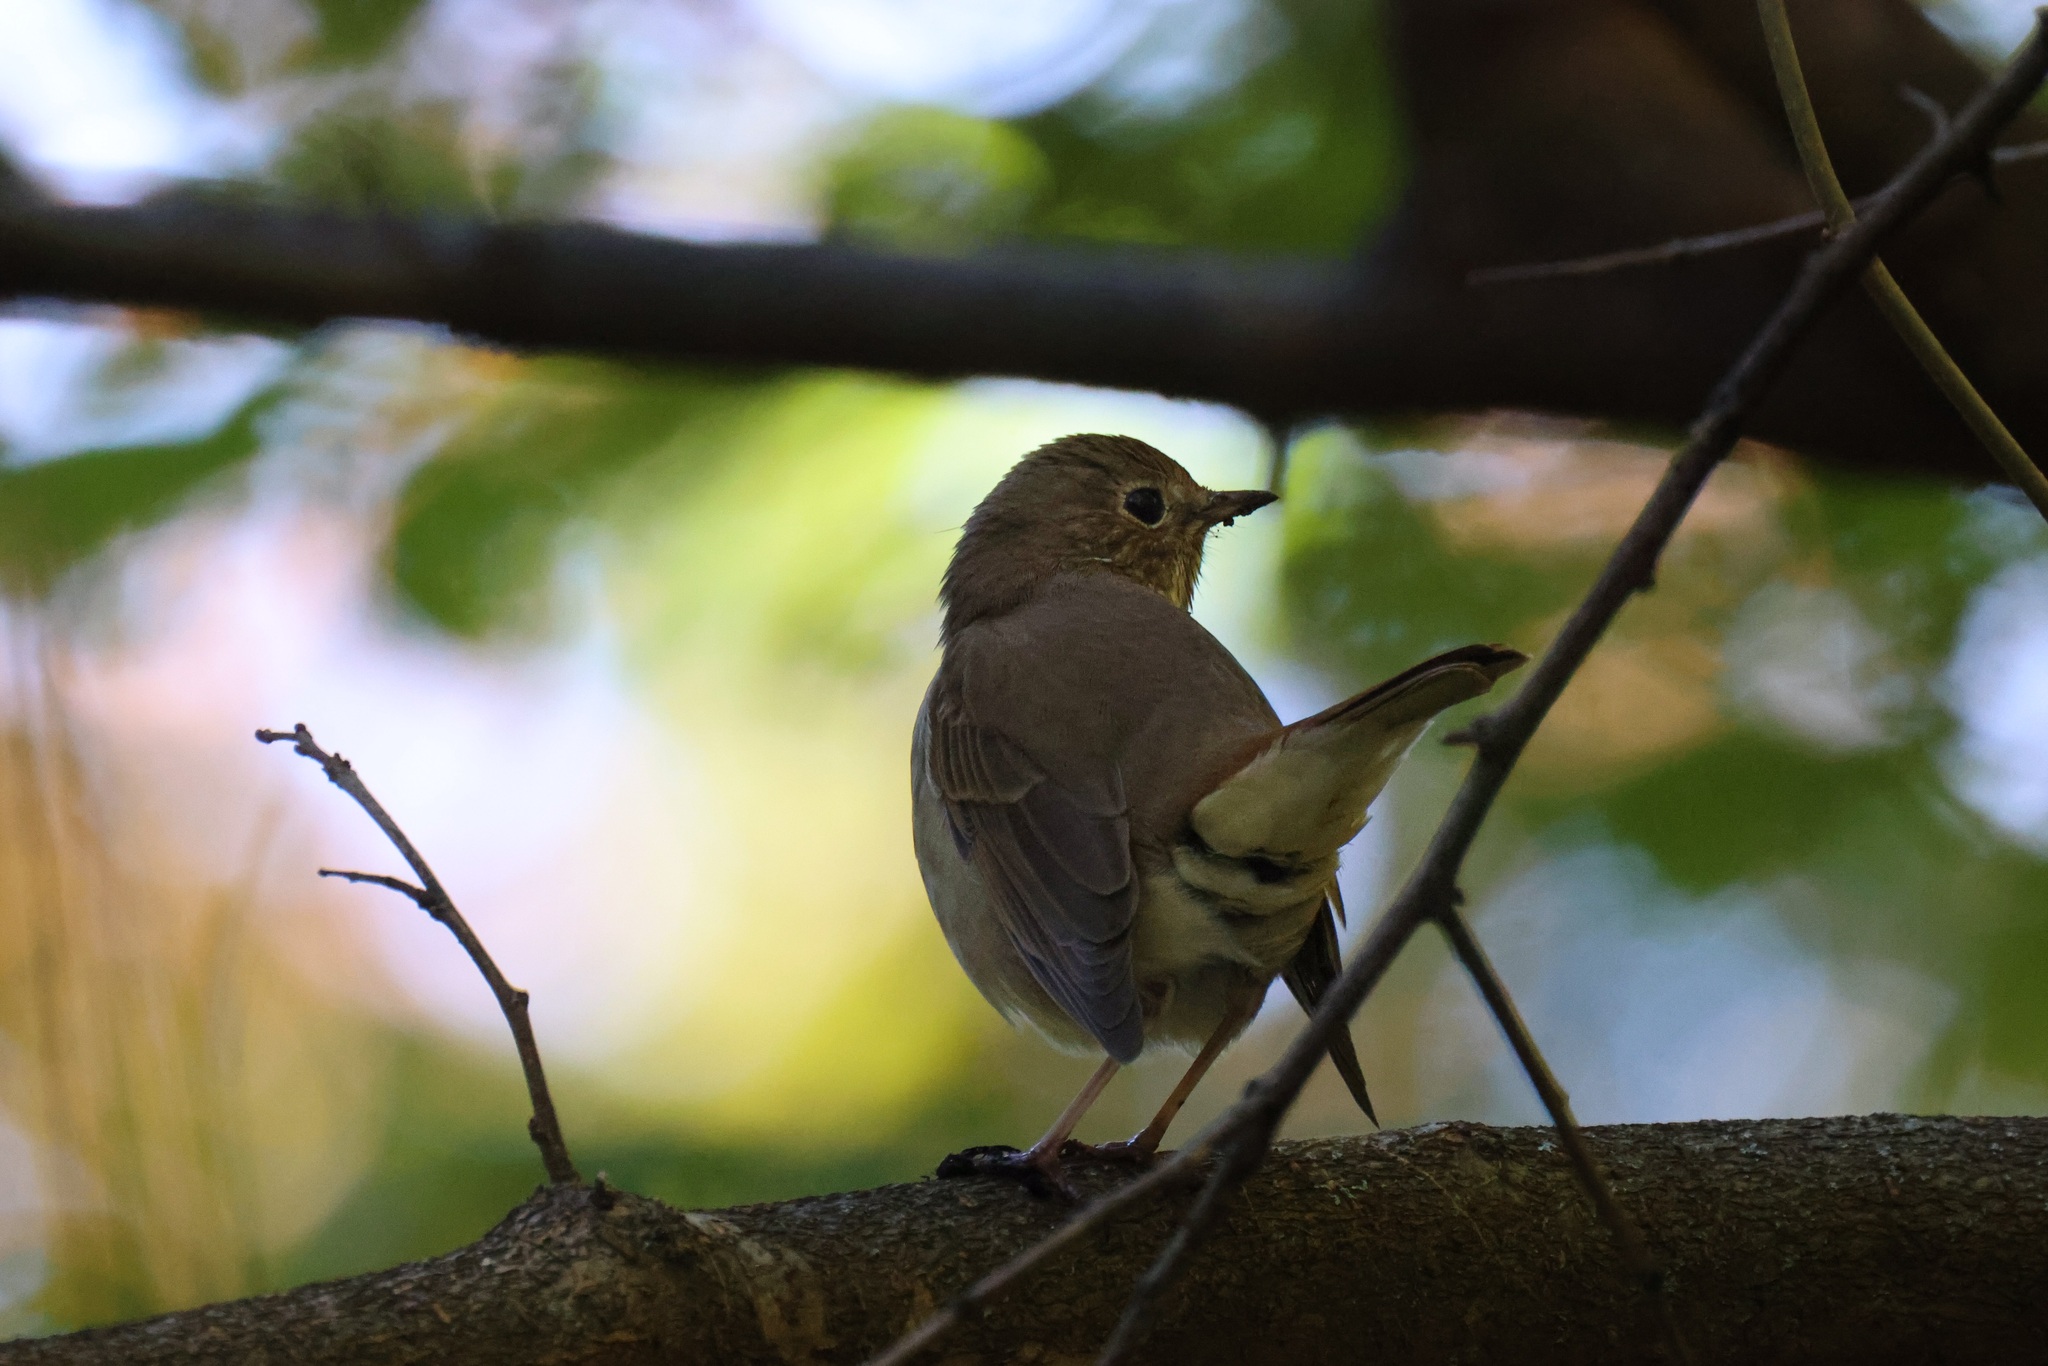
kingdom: Animalia
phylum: Chordata
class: Aves
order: Passeriformes
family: Turdidae
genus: Catharus
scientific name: Catharus guttatus
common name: Hermit thrush
